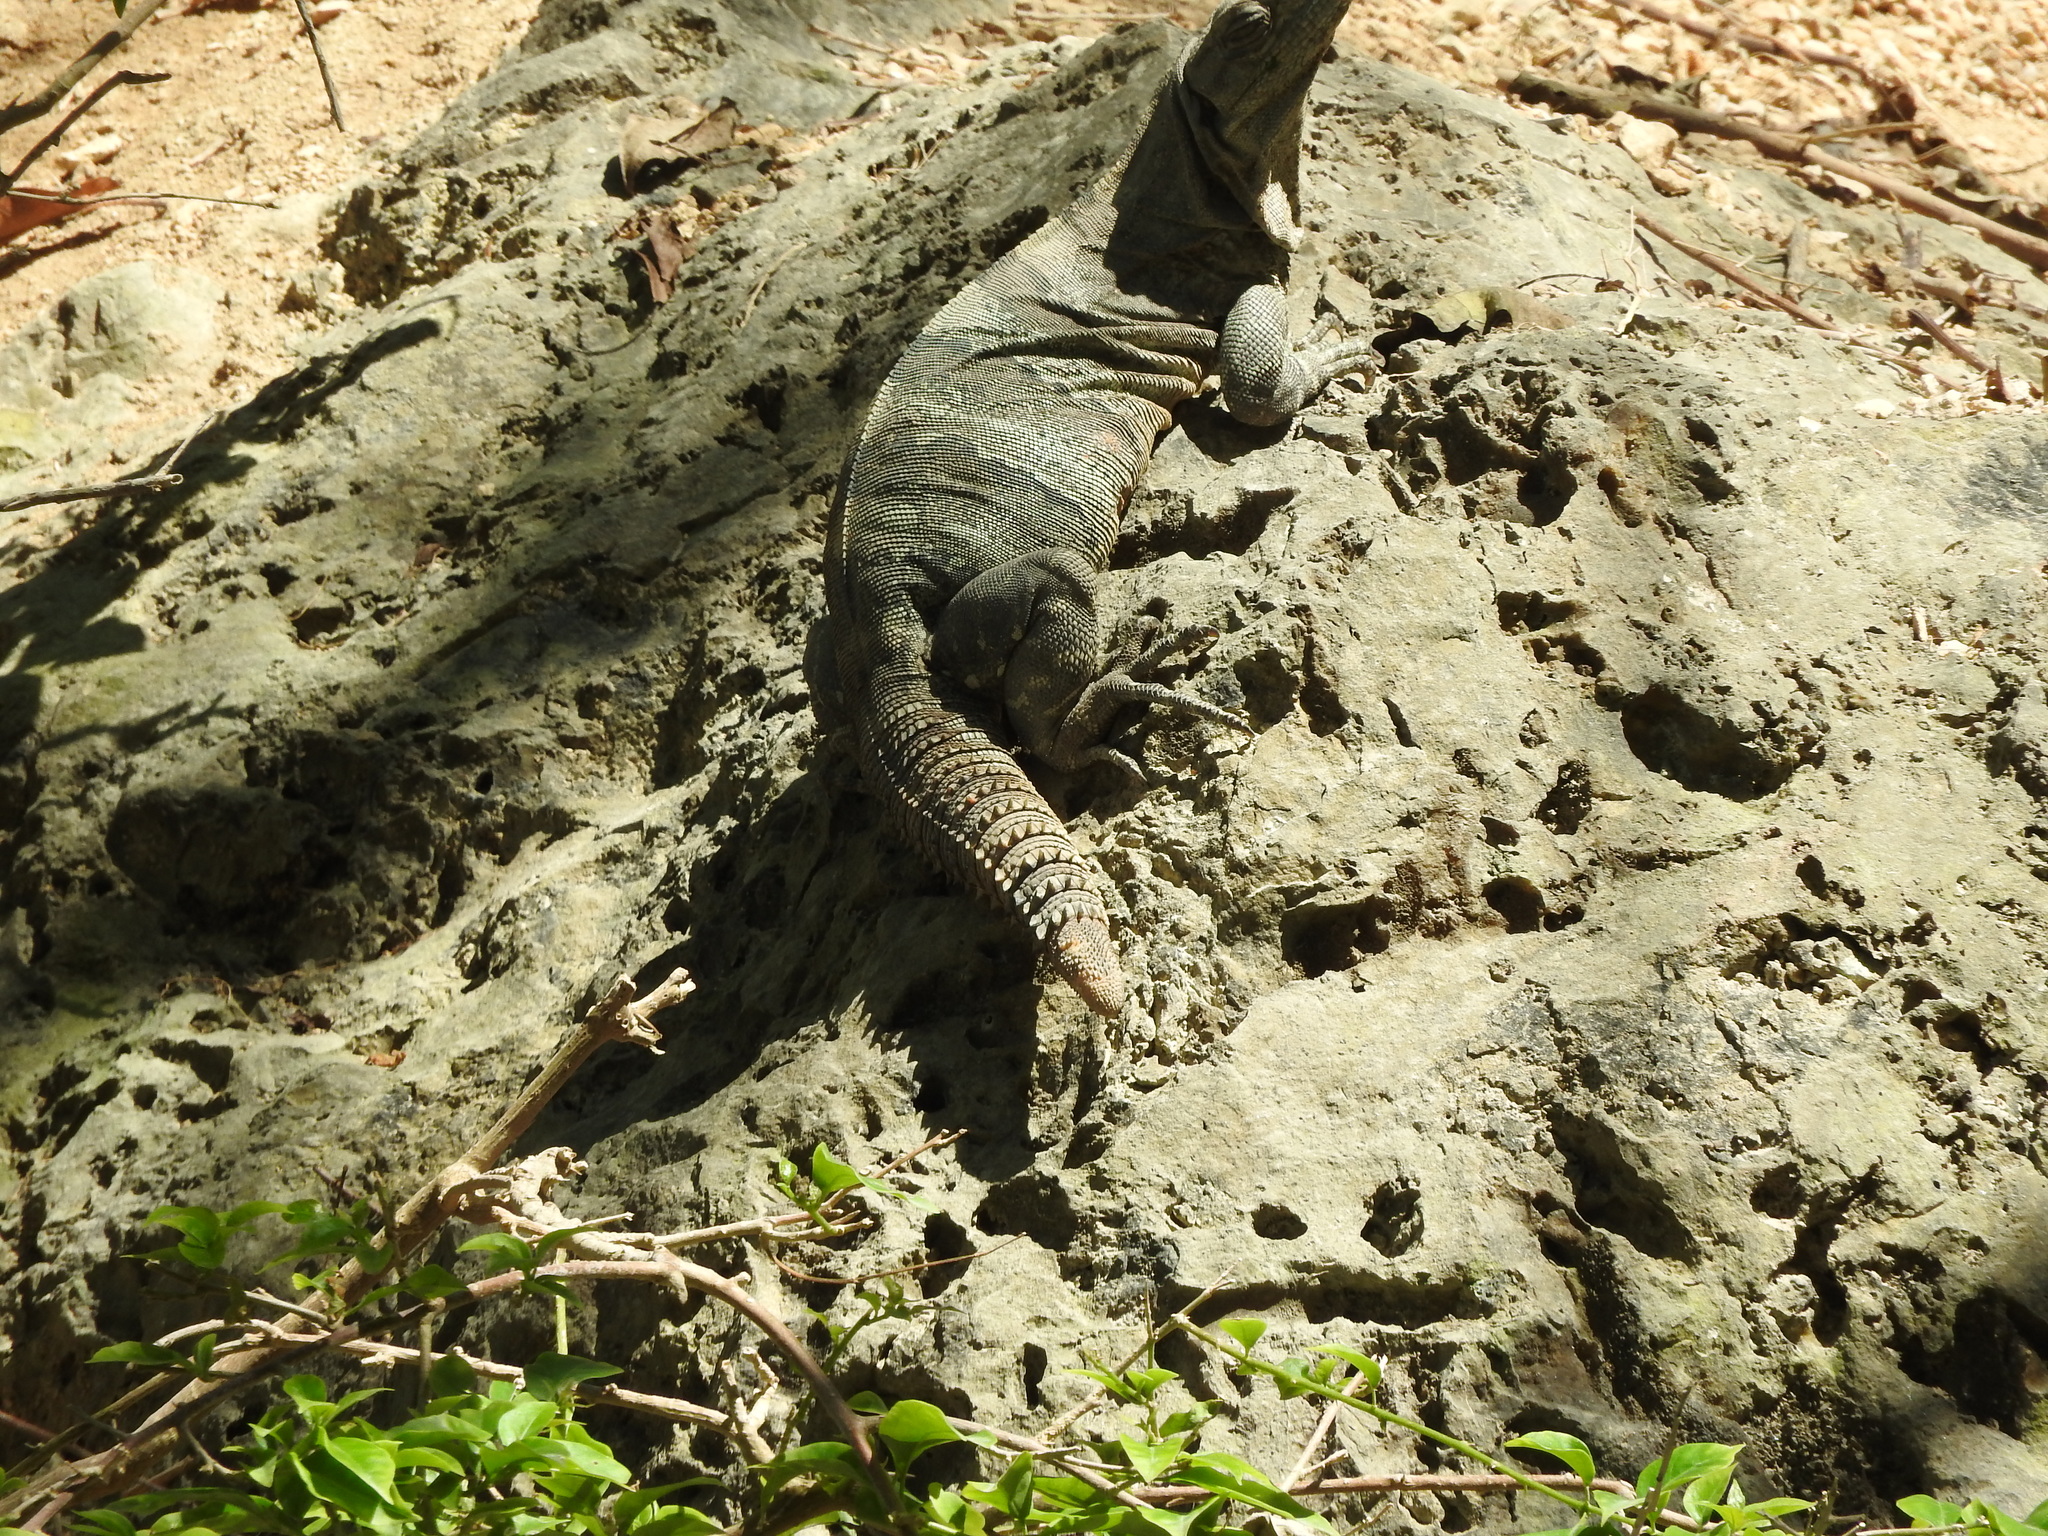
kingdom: Animalia
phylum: Chordata
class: Squamata
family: Iguanidae
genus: Ctenosaura
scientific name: Ctenosaura similis
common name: Black spiny-tailed iguana
